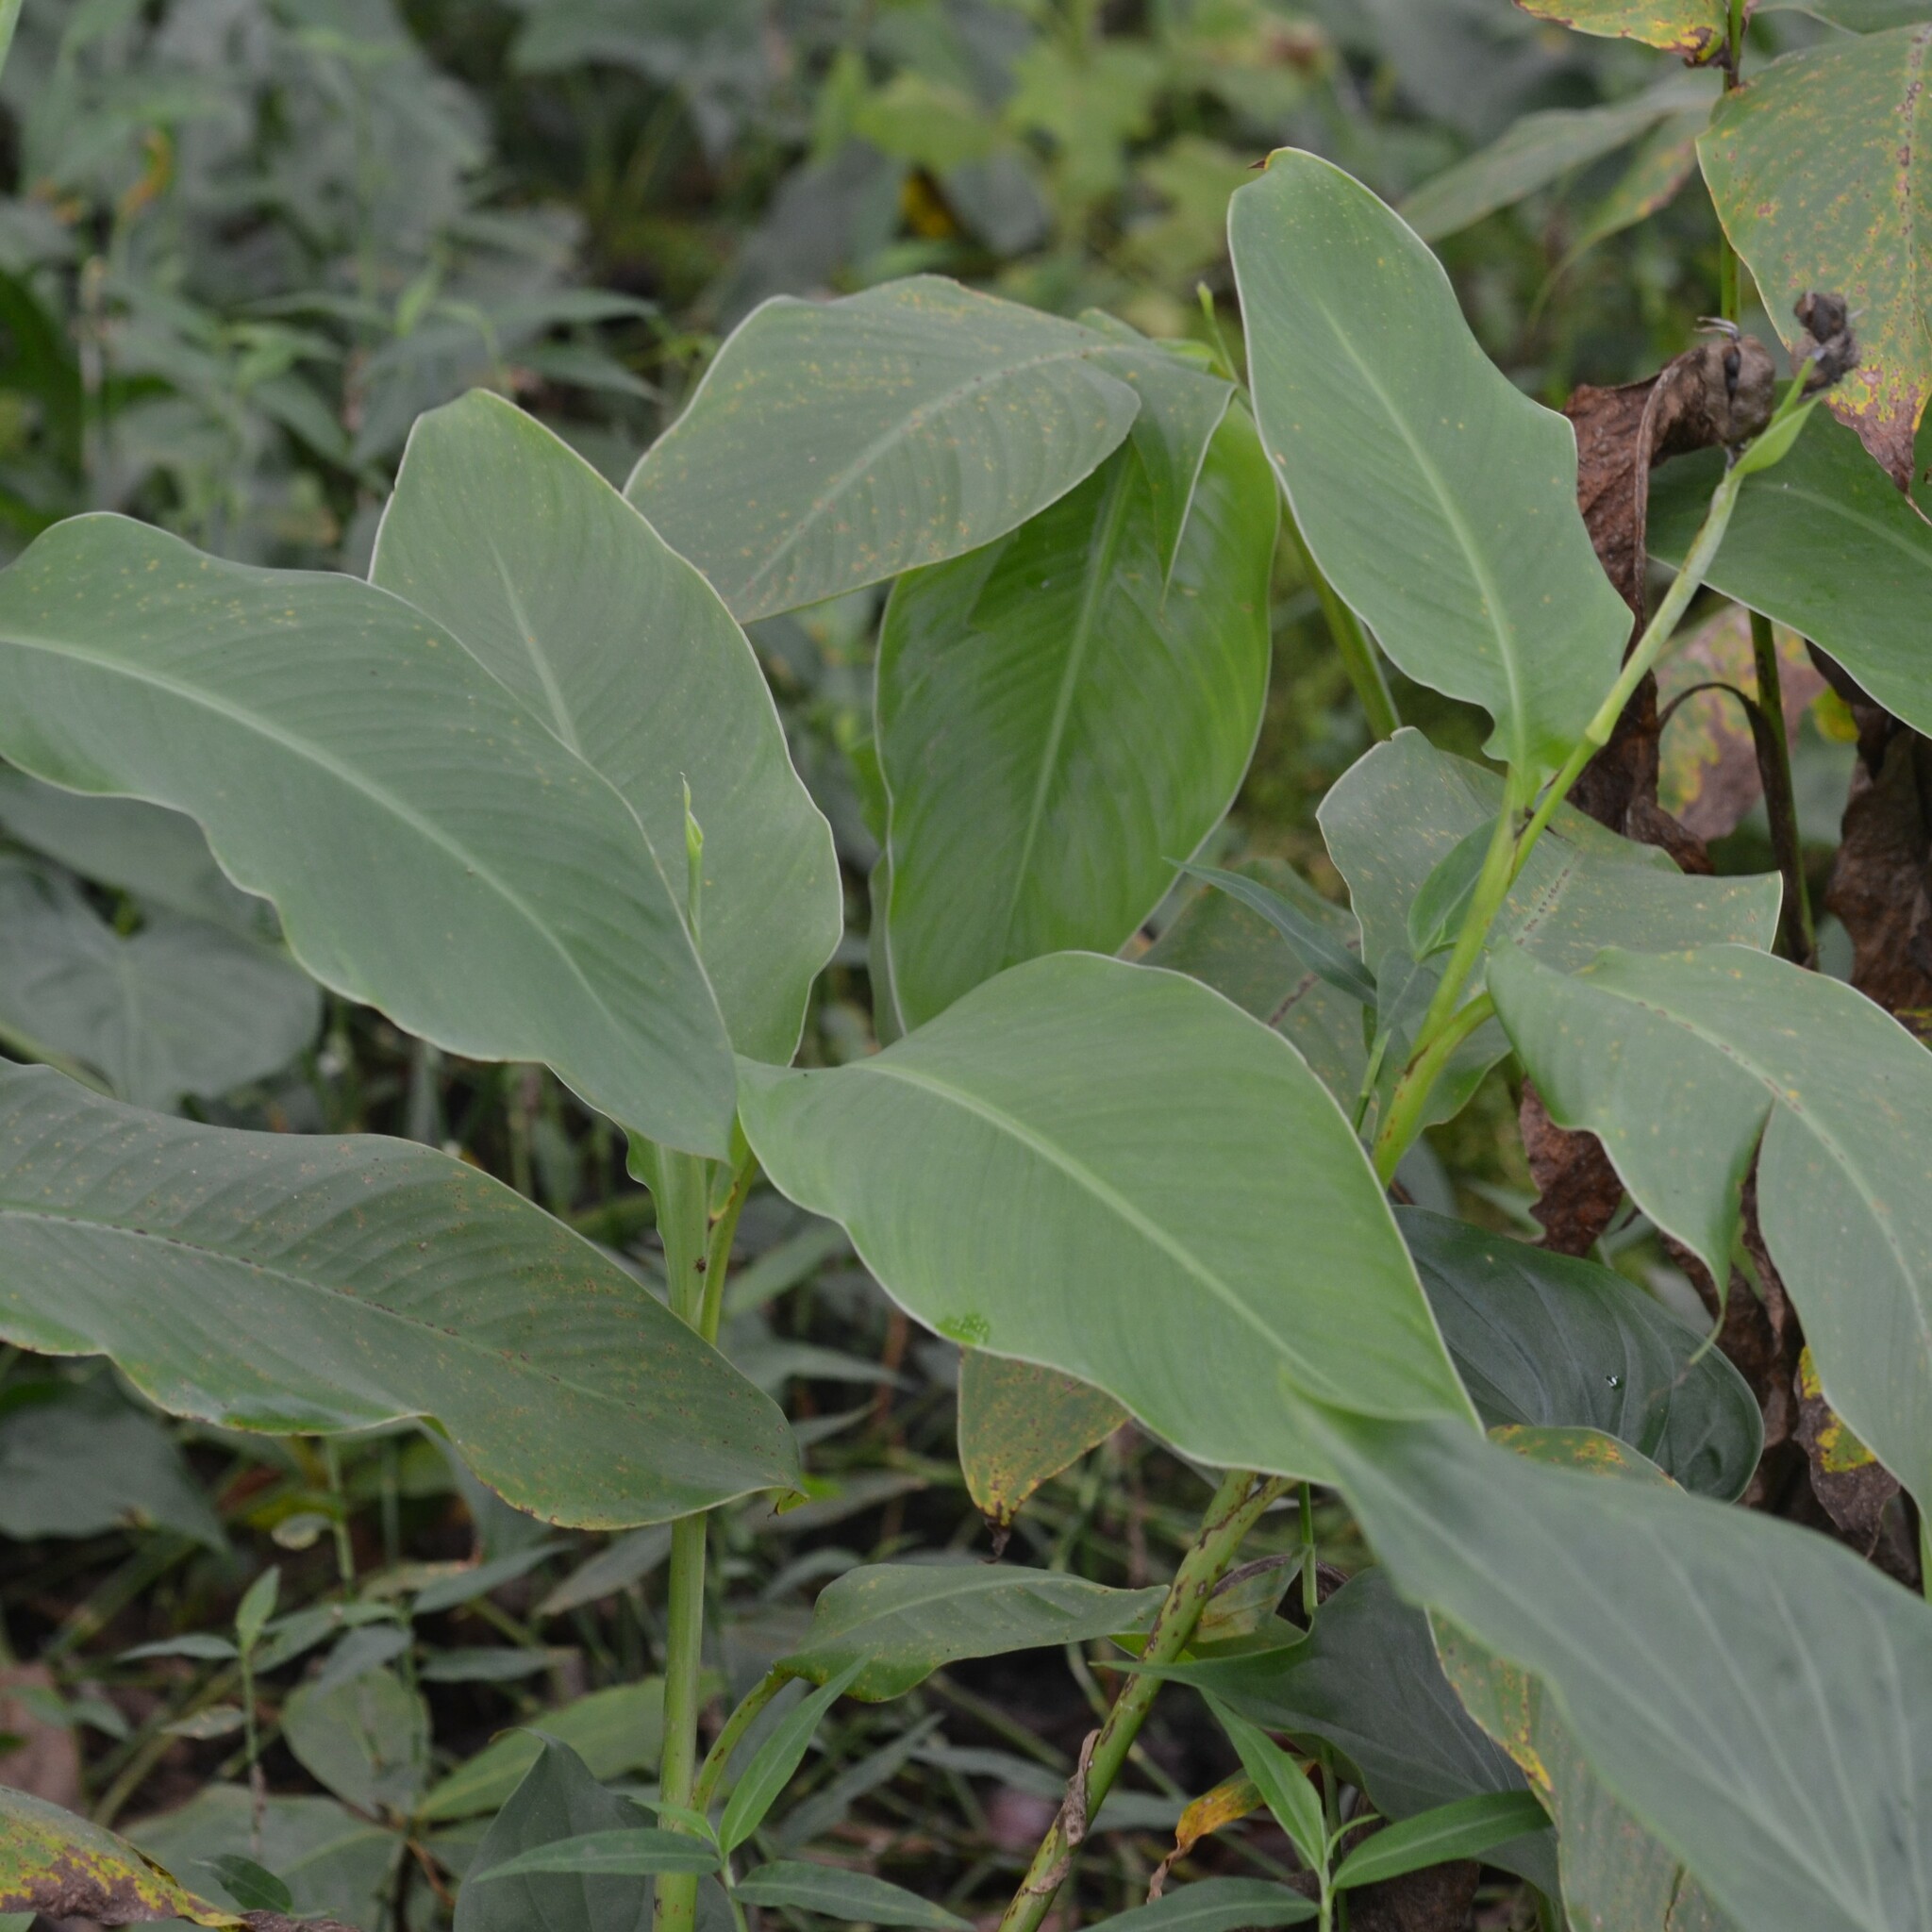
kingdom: Plantae
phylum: Tracheophyta
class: Liliopsida
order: Zingiberales
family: Cannaceae
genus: Canna
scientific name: Canna indica
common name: Indian shot
